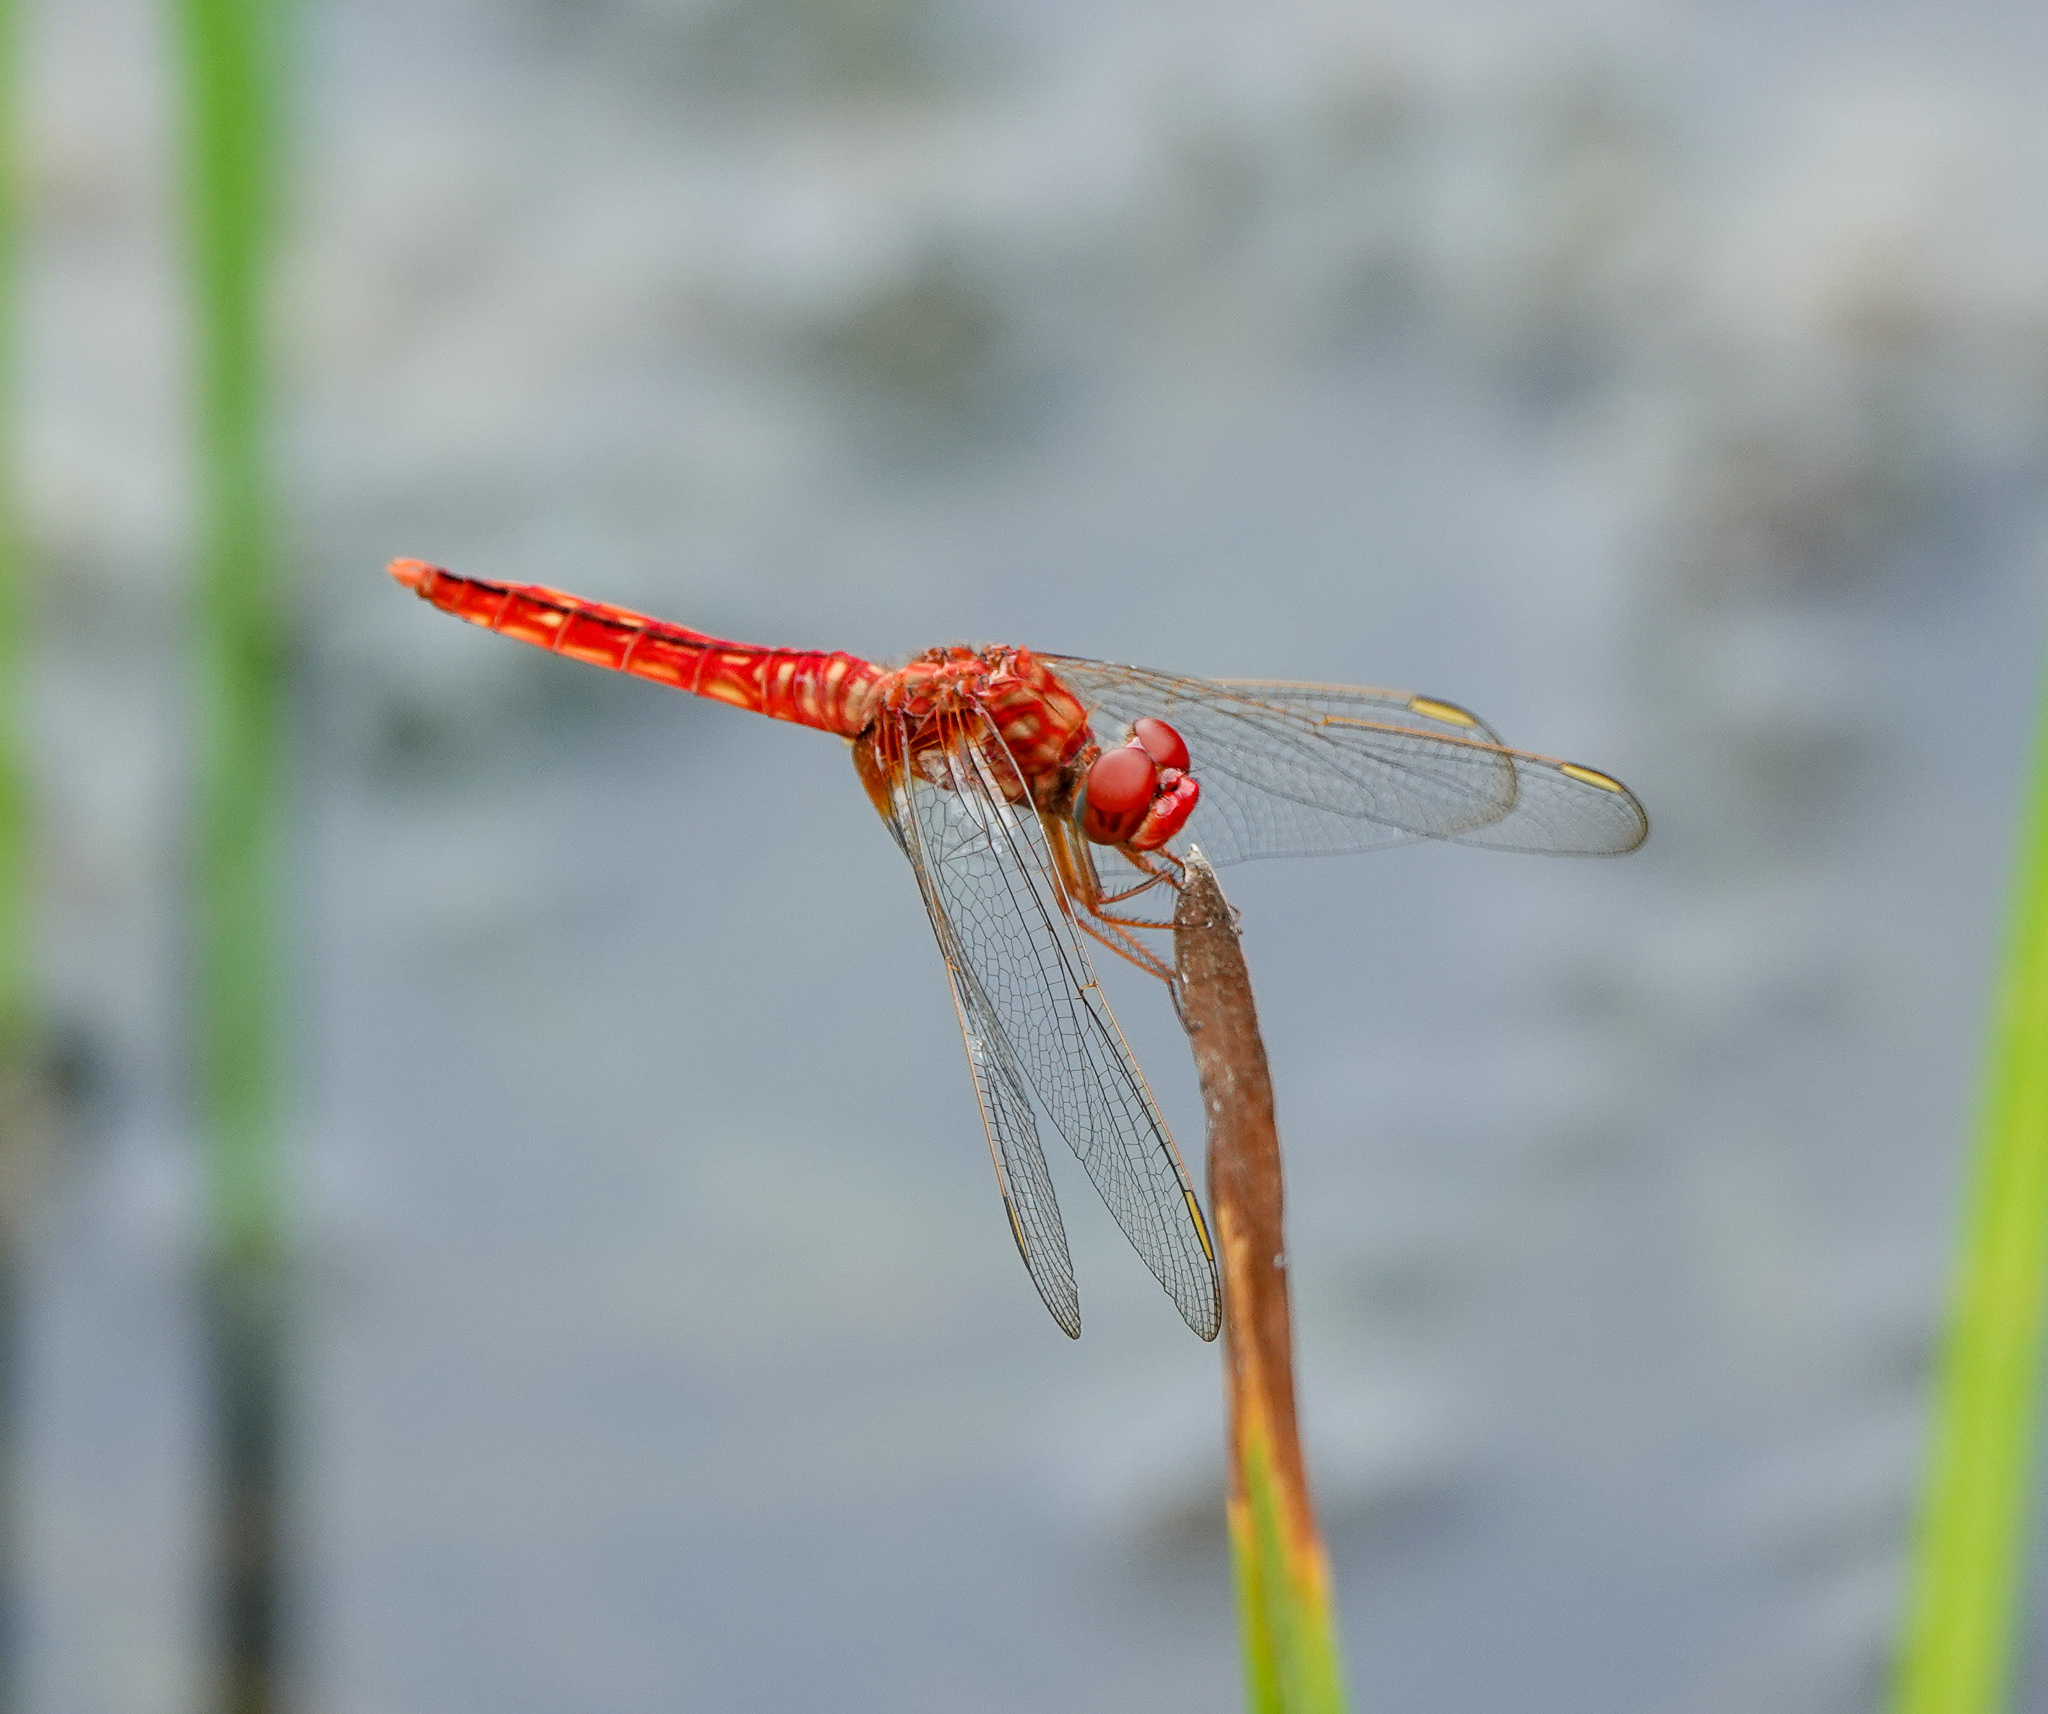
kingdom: Animalia
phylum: Arthropoda
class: Insecta
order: Odonata
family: Libellulidae
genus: Crocothemis
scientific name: Crocothemis servilia
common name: Scarlet skimmer
